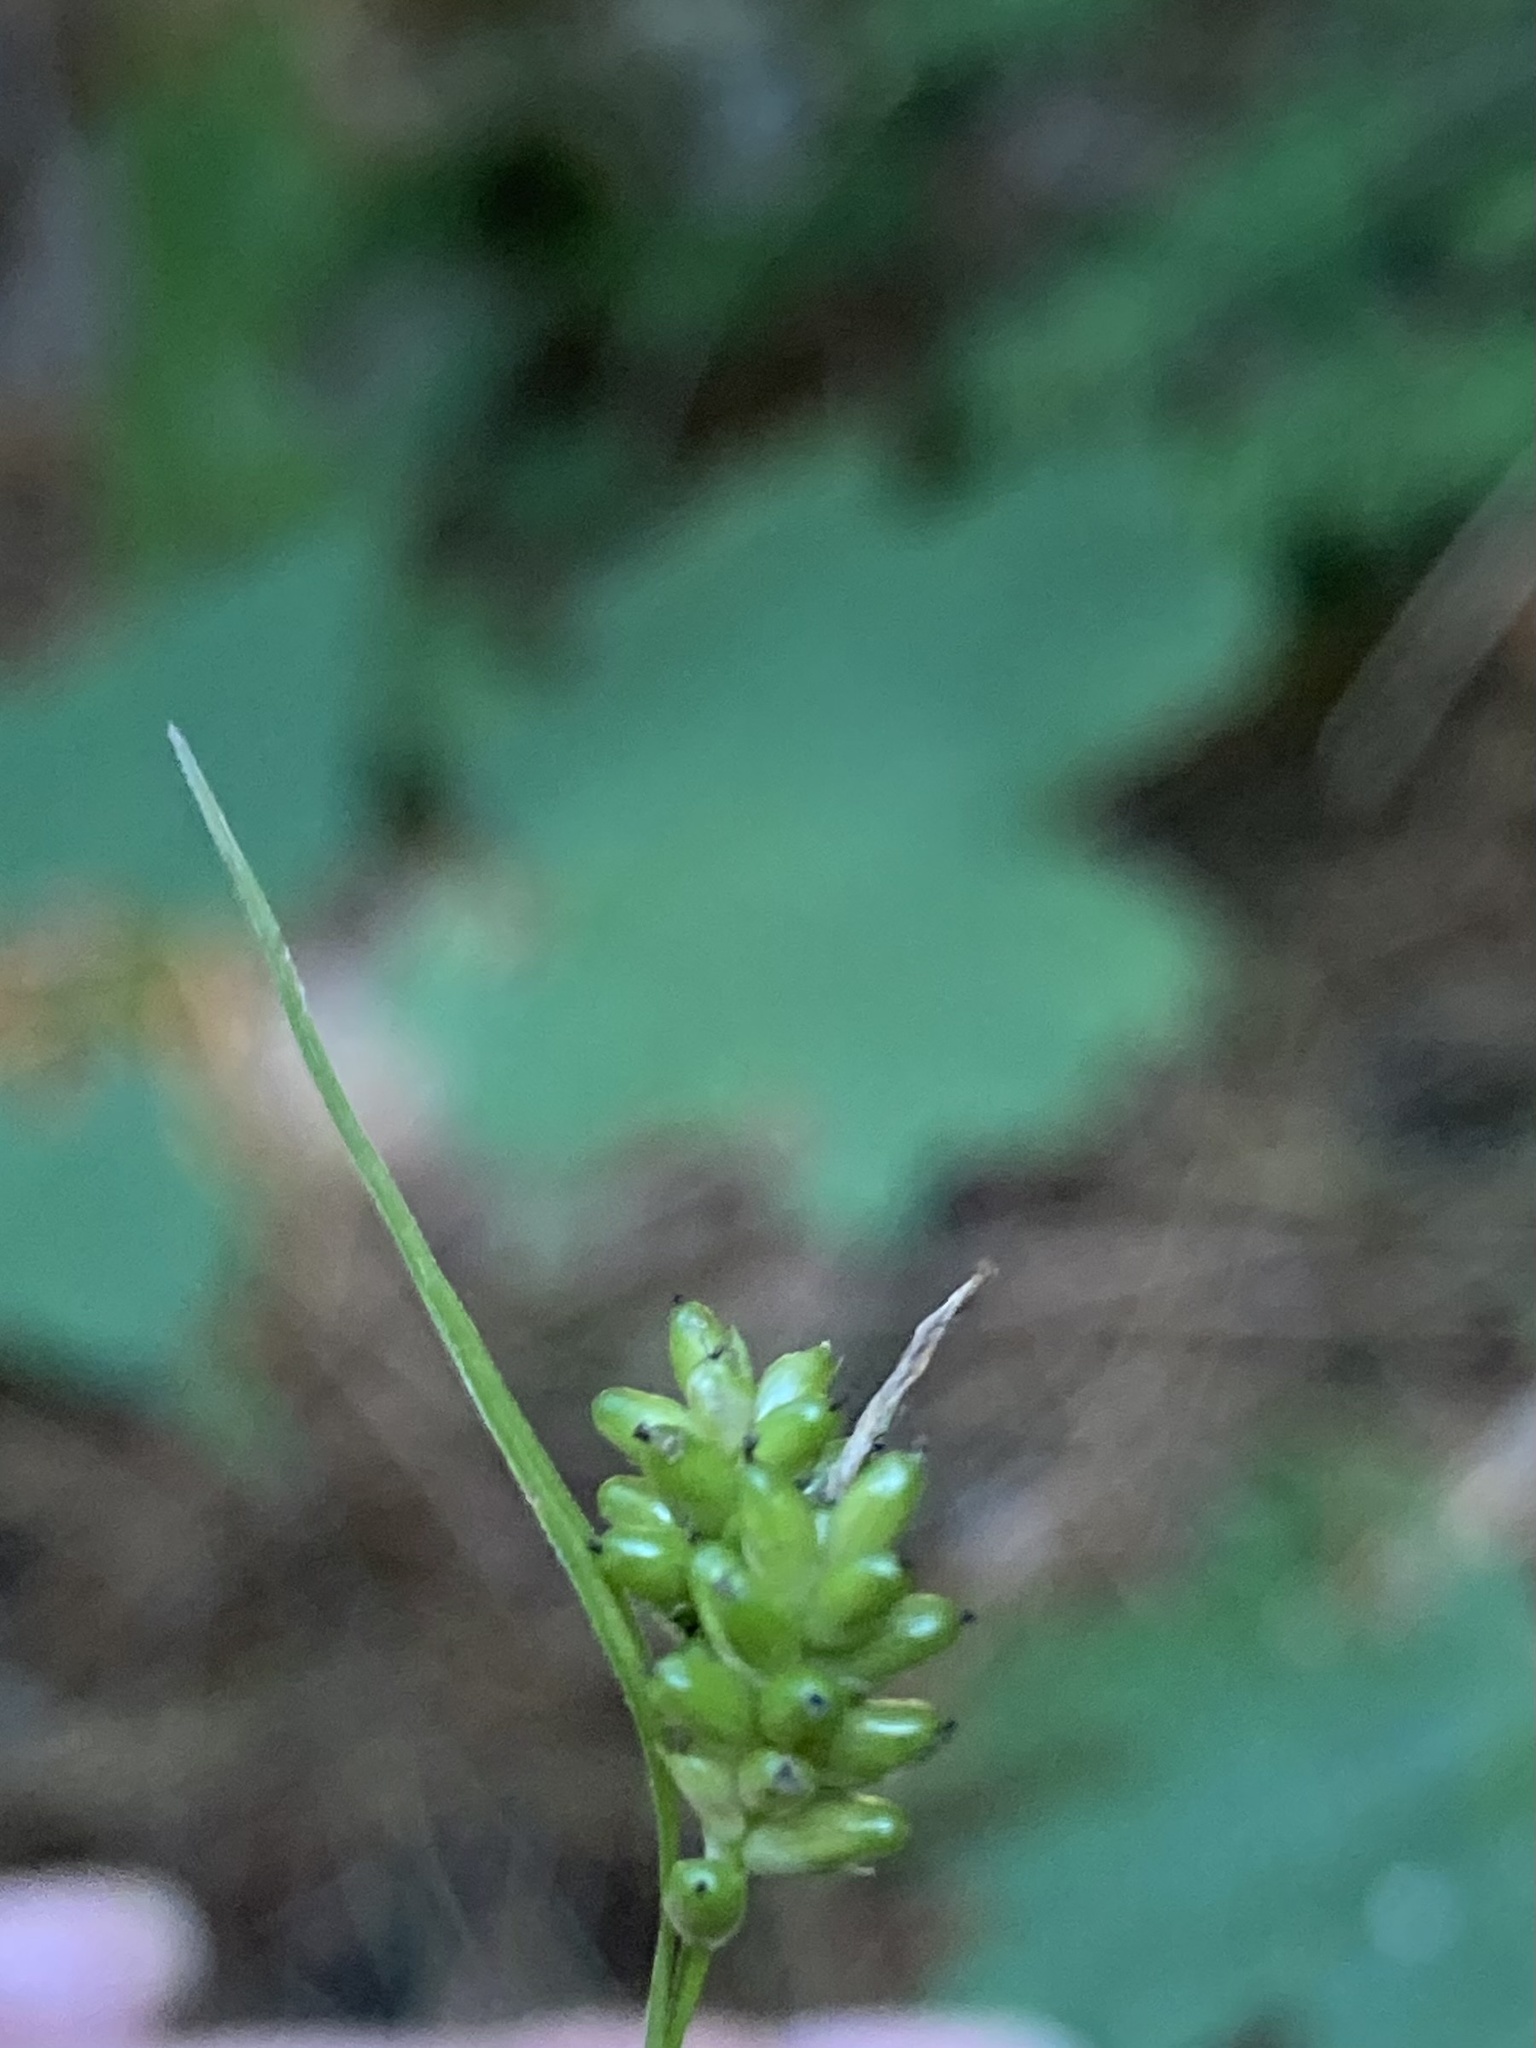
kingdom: Plantae
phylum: Tracheophyta
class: Liliopsida
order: Poales
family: Cyperaceae
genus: Carex
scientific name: Carex pallescens
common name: Pale sedge
